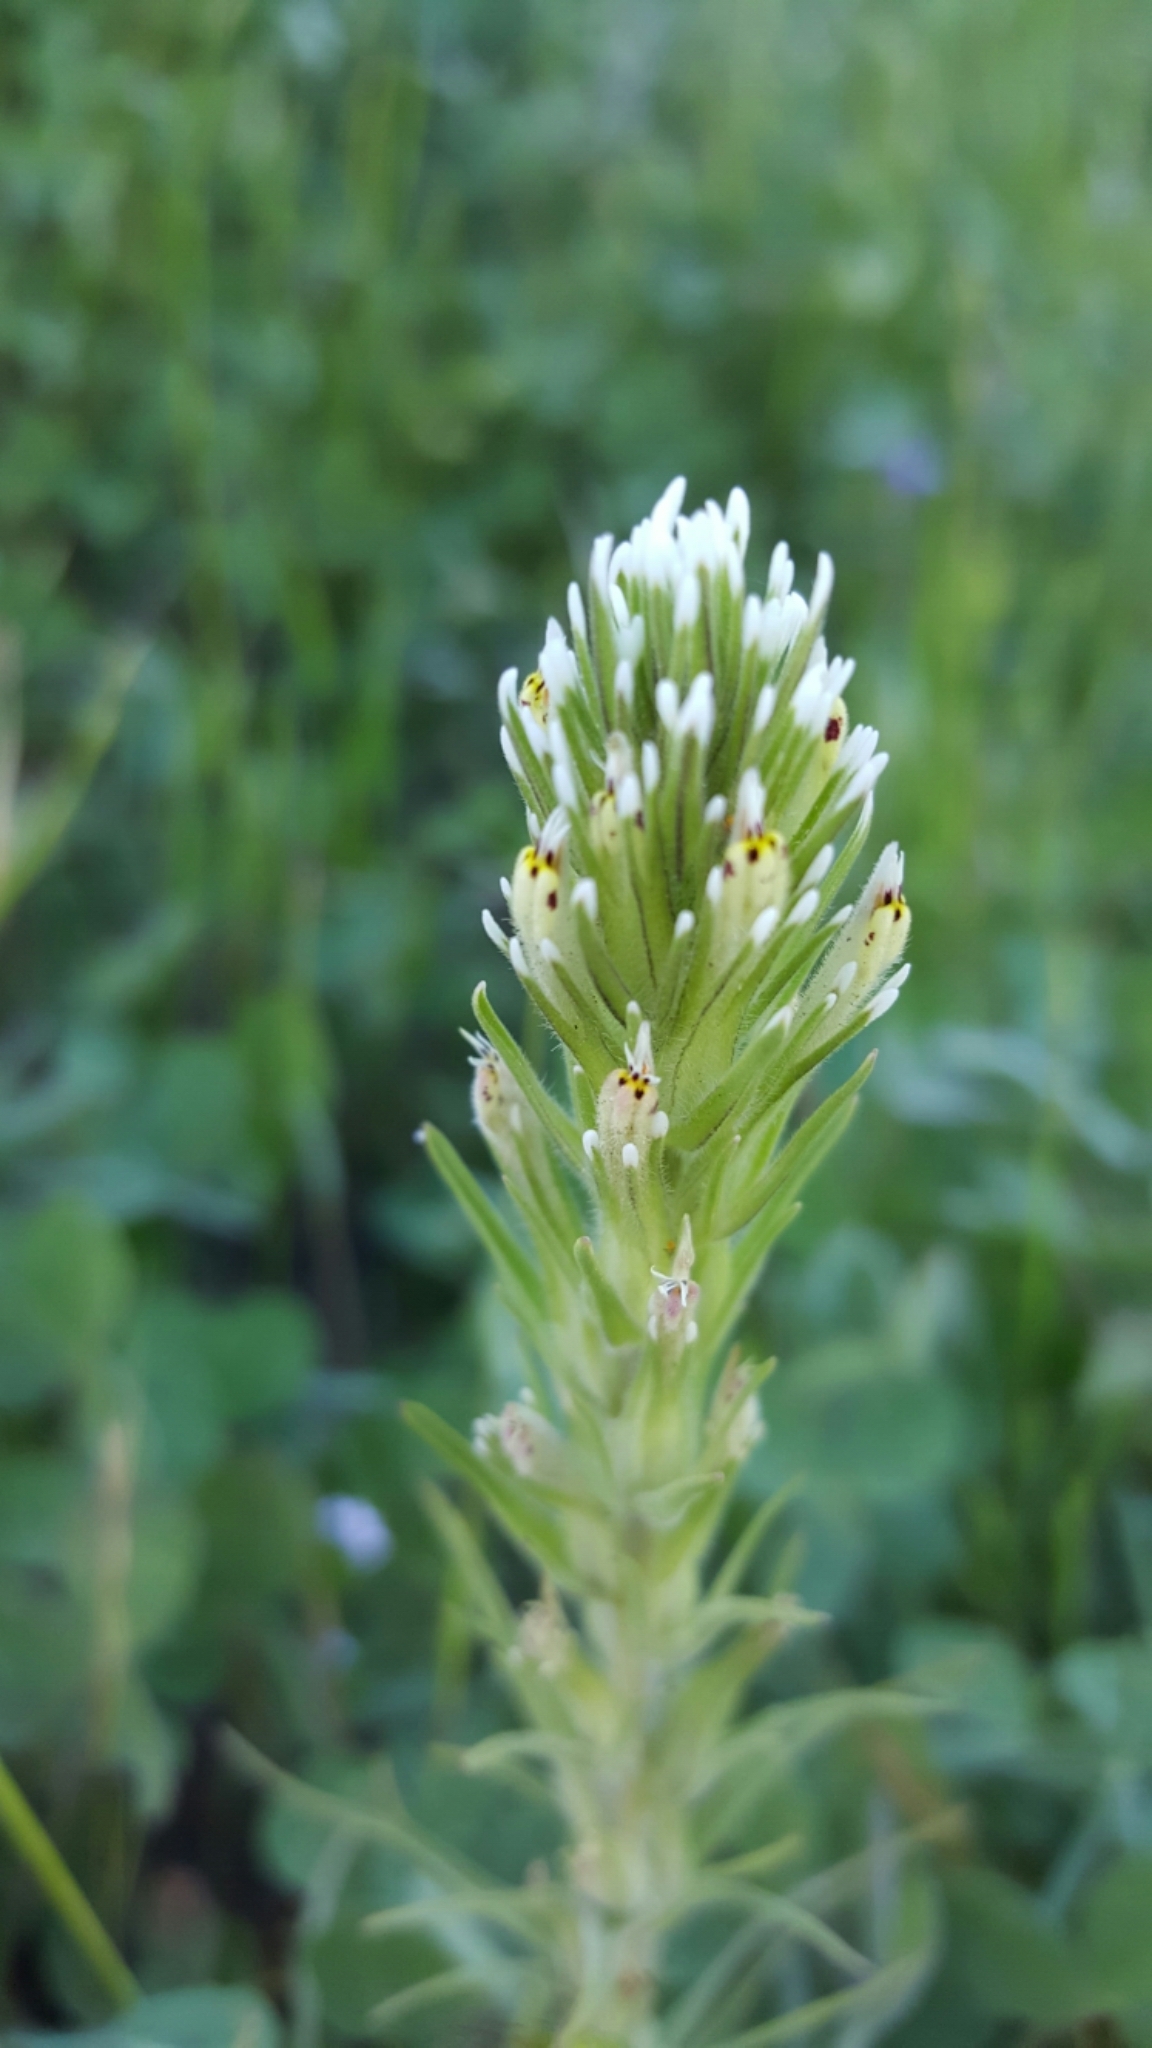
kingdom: Plantae
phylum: Tracheophyta
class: Magnoliopsida
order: Lamiales
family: Orobanchaceae
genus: Castilleja
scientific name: Castilleja attenuata
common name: Valley tassels
